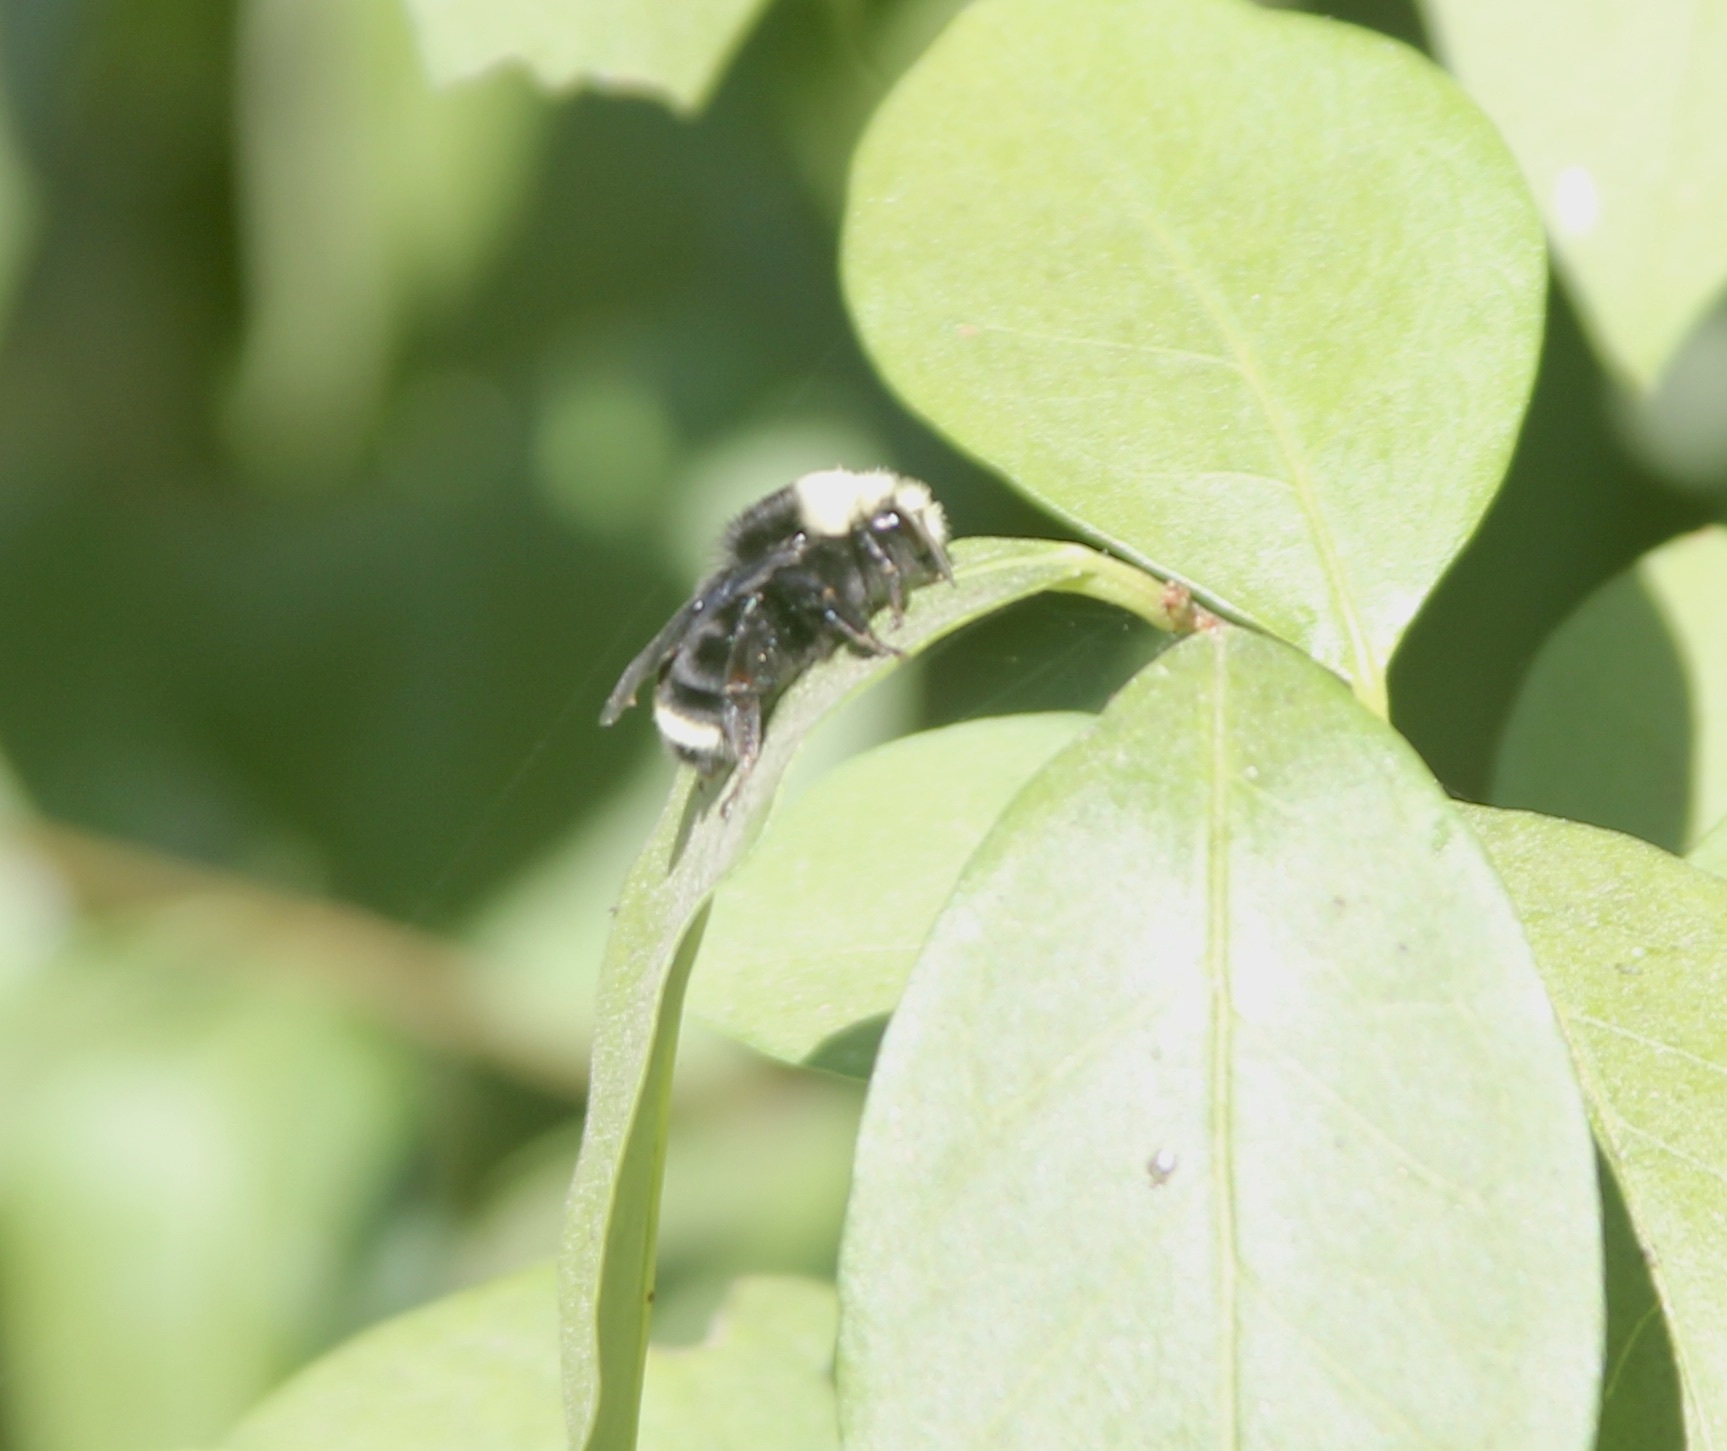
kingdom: Animalia
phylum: Arthropoda
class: Insecta
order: Hymenoptera
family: Apidae
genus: Bombus
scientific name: Bombus vosnesenskii
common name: Vosnesensky bumble bee
